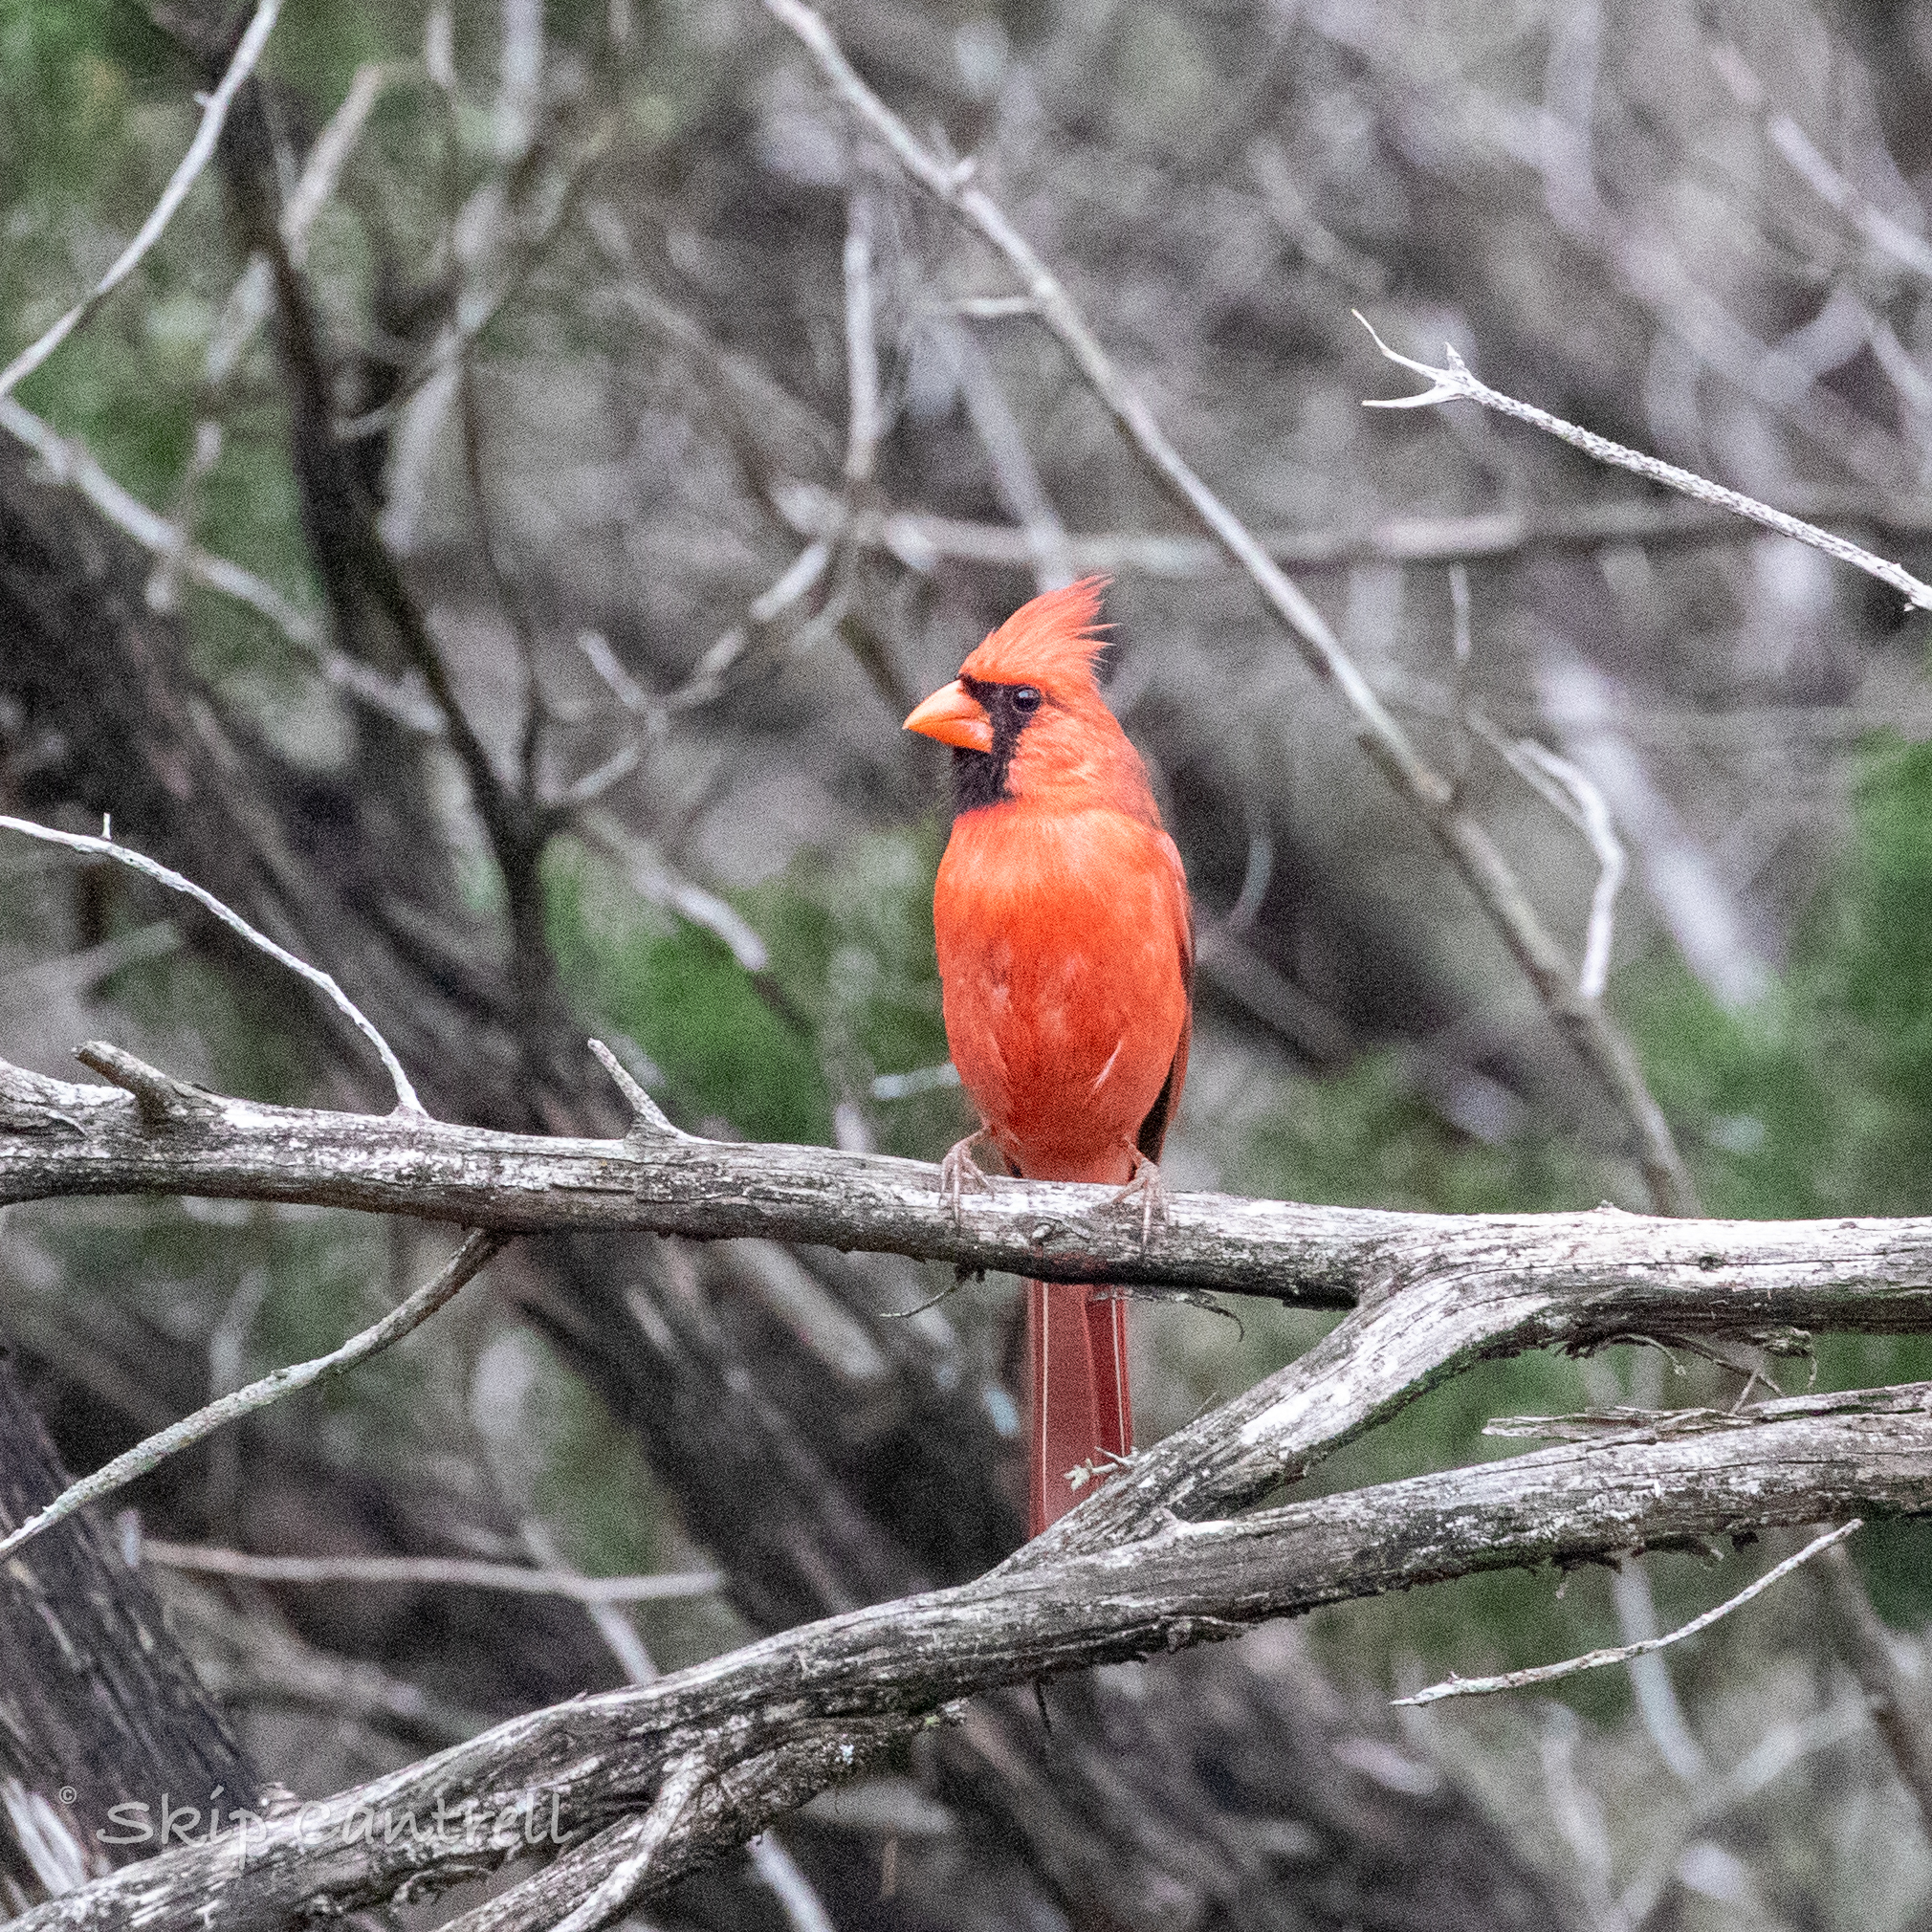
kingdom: Animalia
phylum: Chordata
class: Aves
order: Passeriformes
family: Cardinalidae
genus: Cardinalis
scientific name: Cardinalis cardinalis
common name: Northern cardinal
